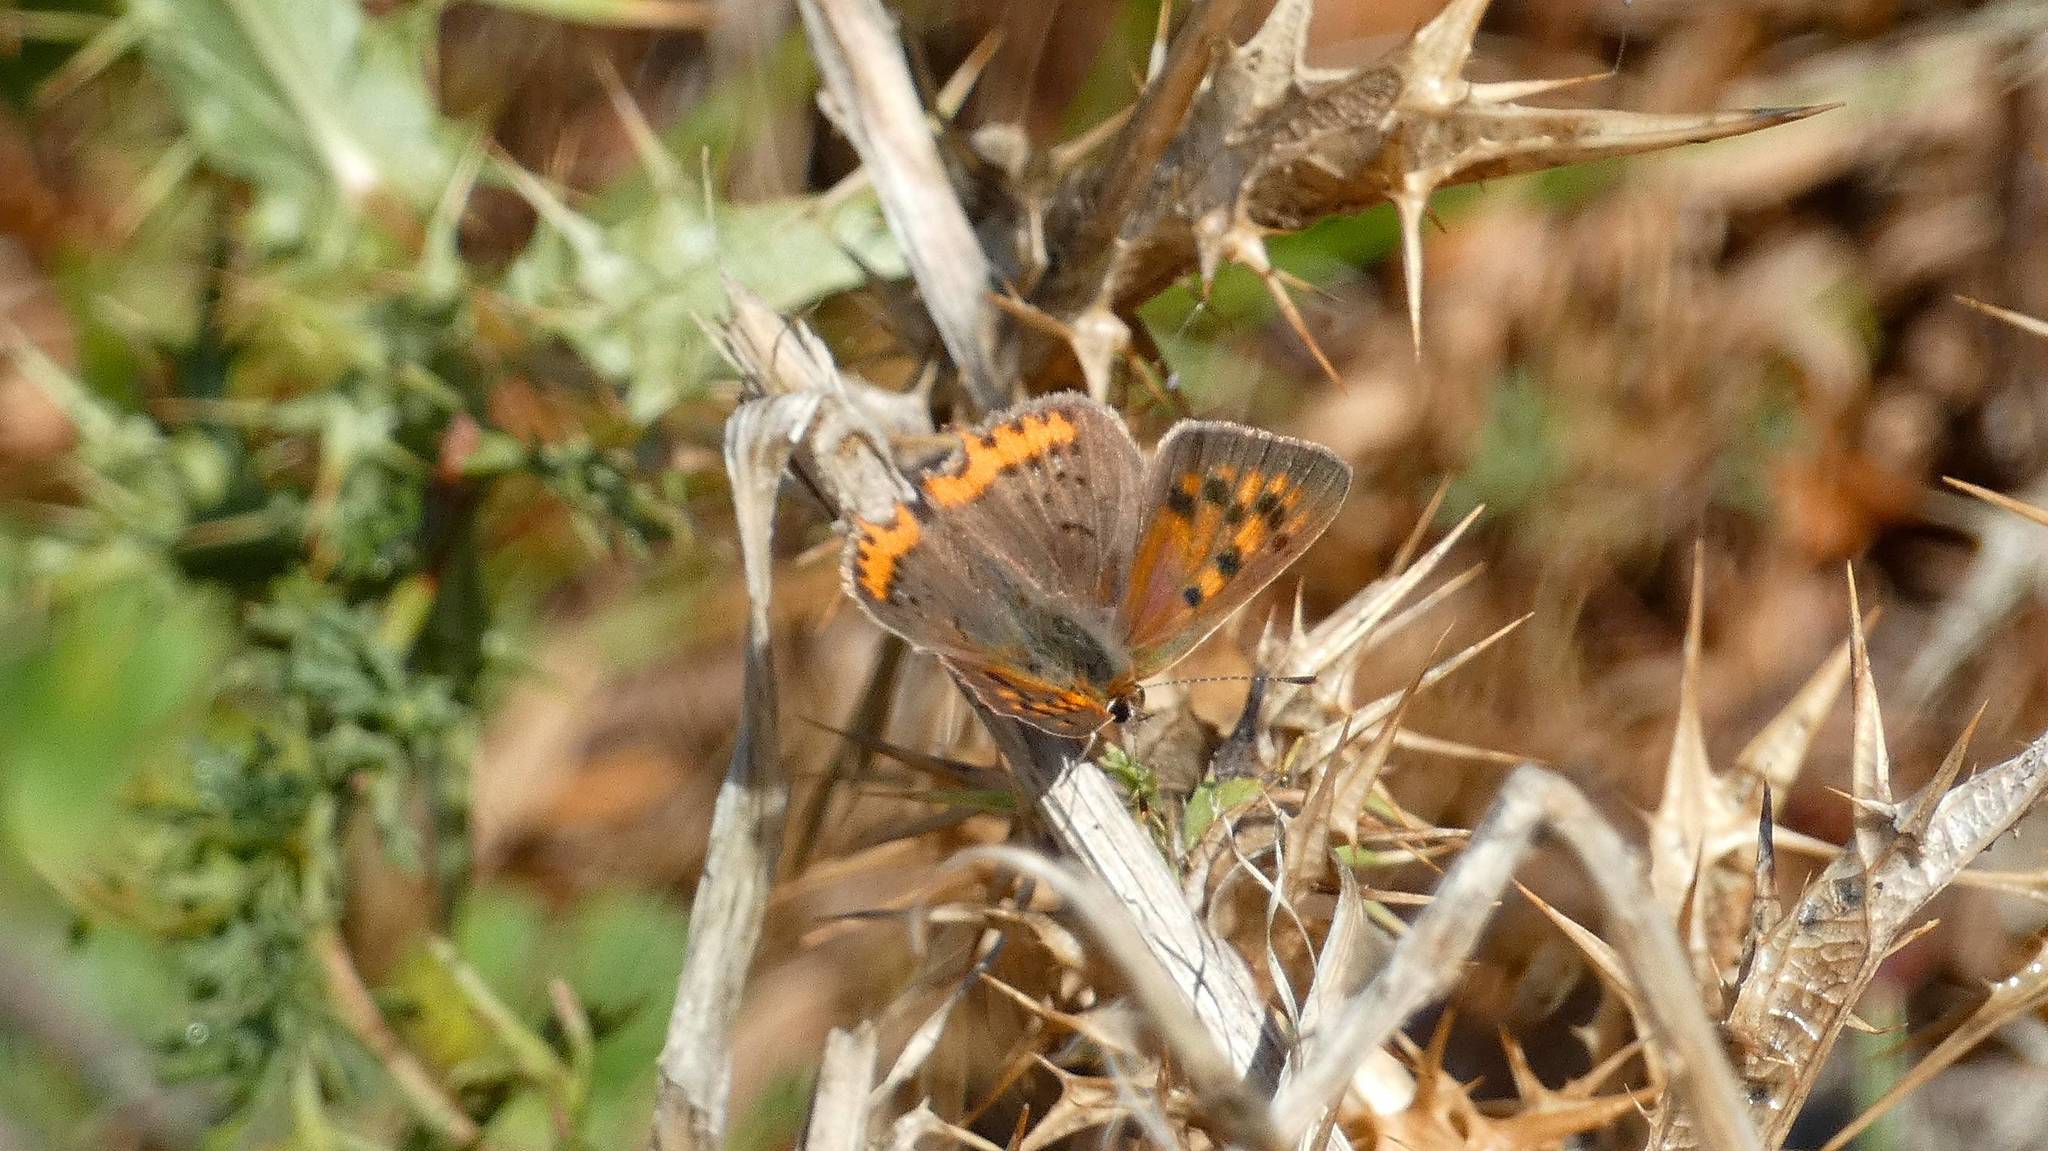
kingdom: Animalia
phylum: Arthropoda
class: Insecta
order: Lepidoptera
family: Lycaenidae
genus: Lycaena
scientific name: Lycaena phlaeas
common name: Small copper
